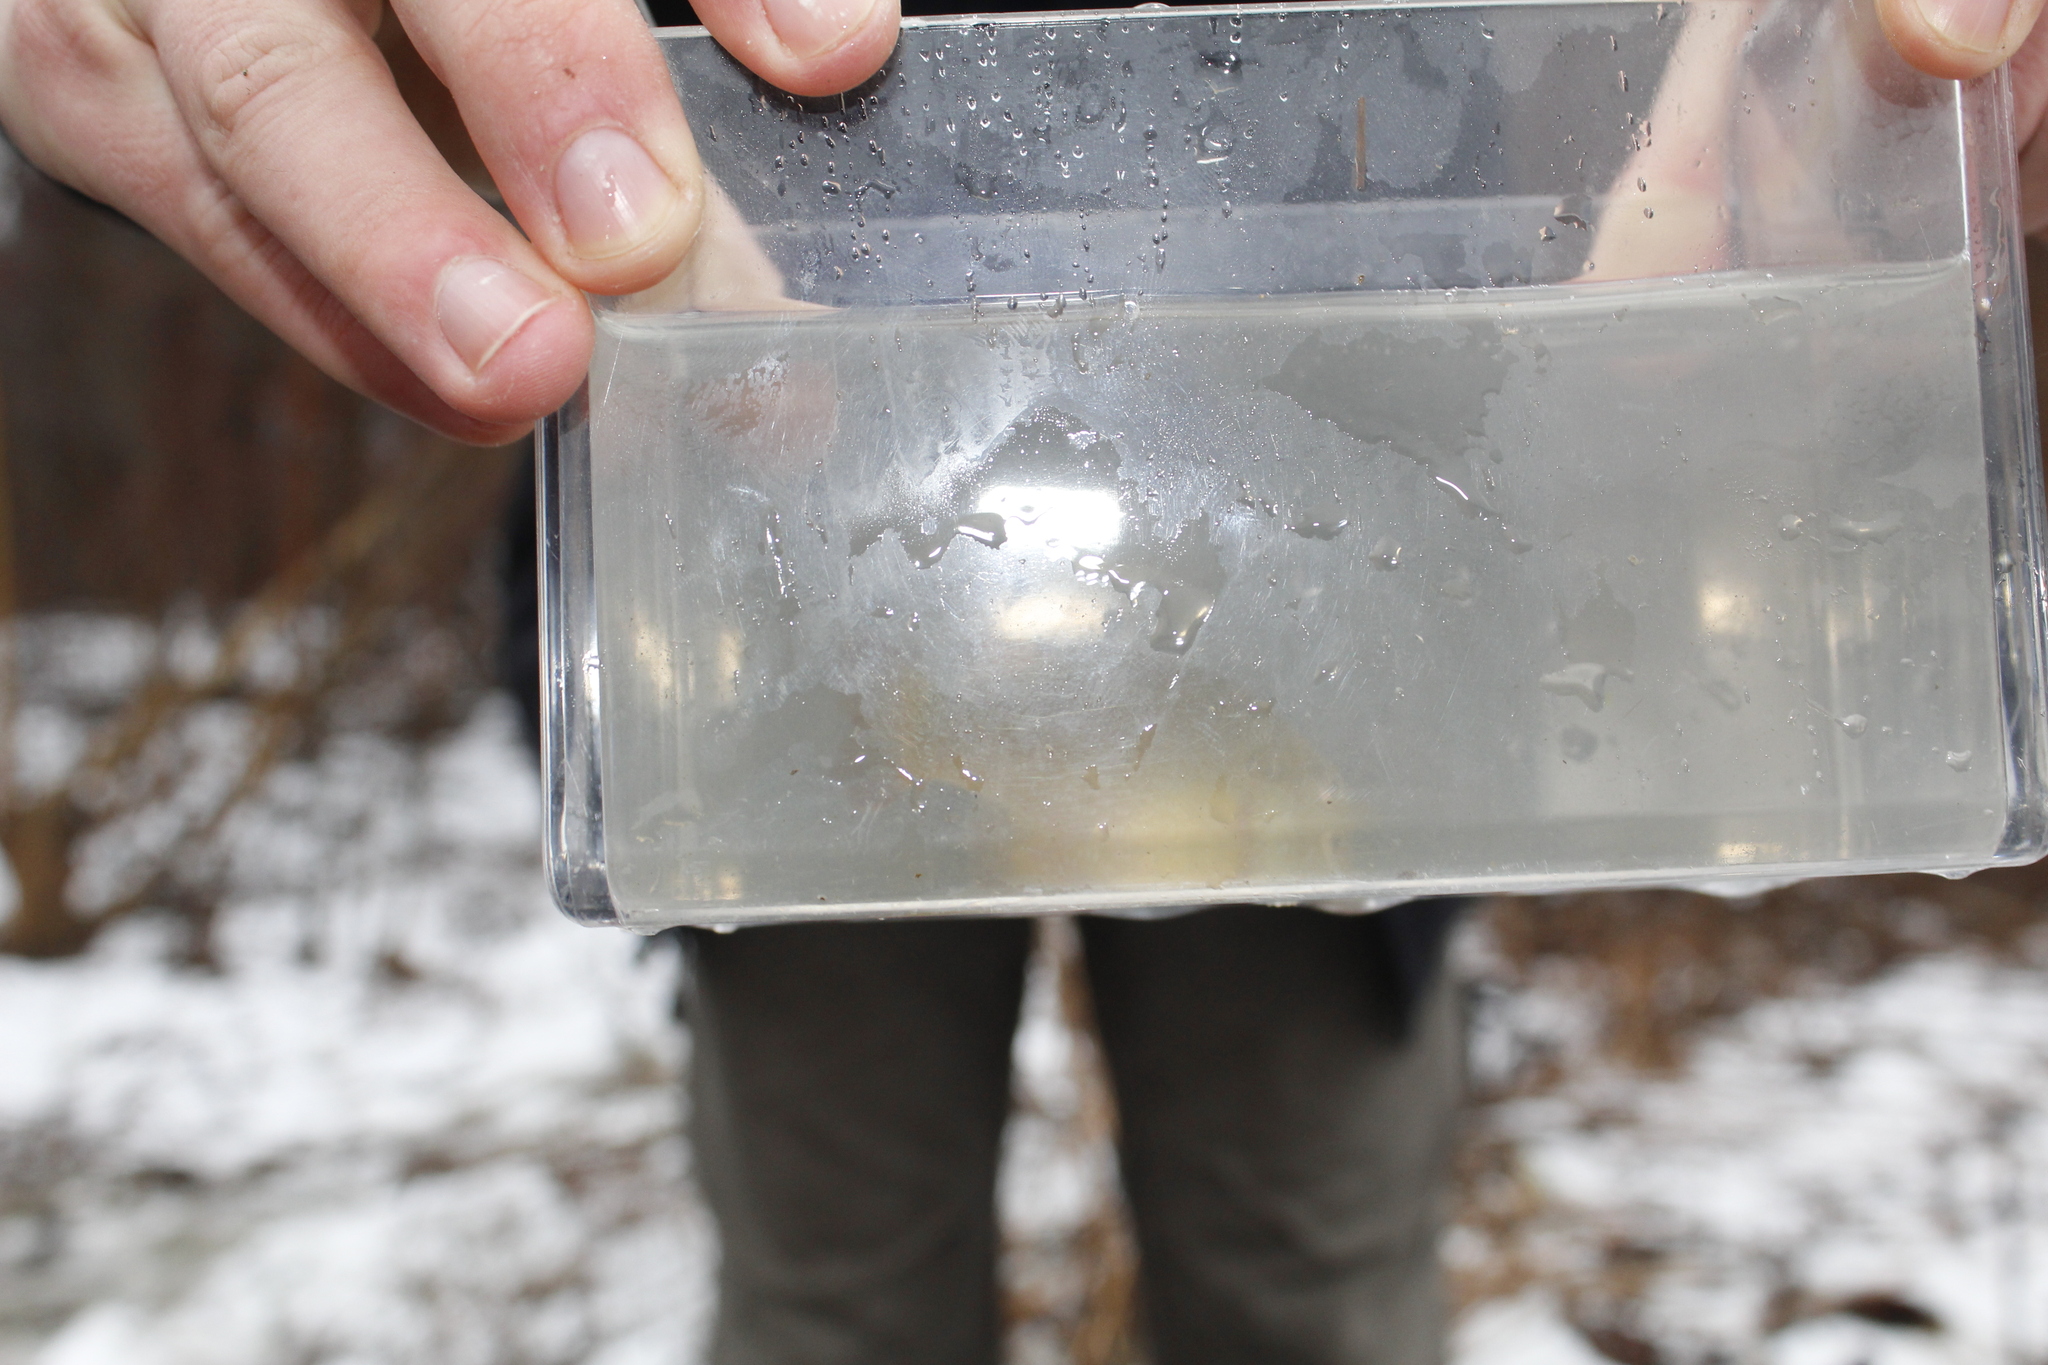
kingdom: Animalia
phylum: Chordata
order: Perciformes
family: Centrarchidae
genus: Lepomis
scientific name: Lepomis cyanellus
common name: Green sunfish
